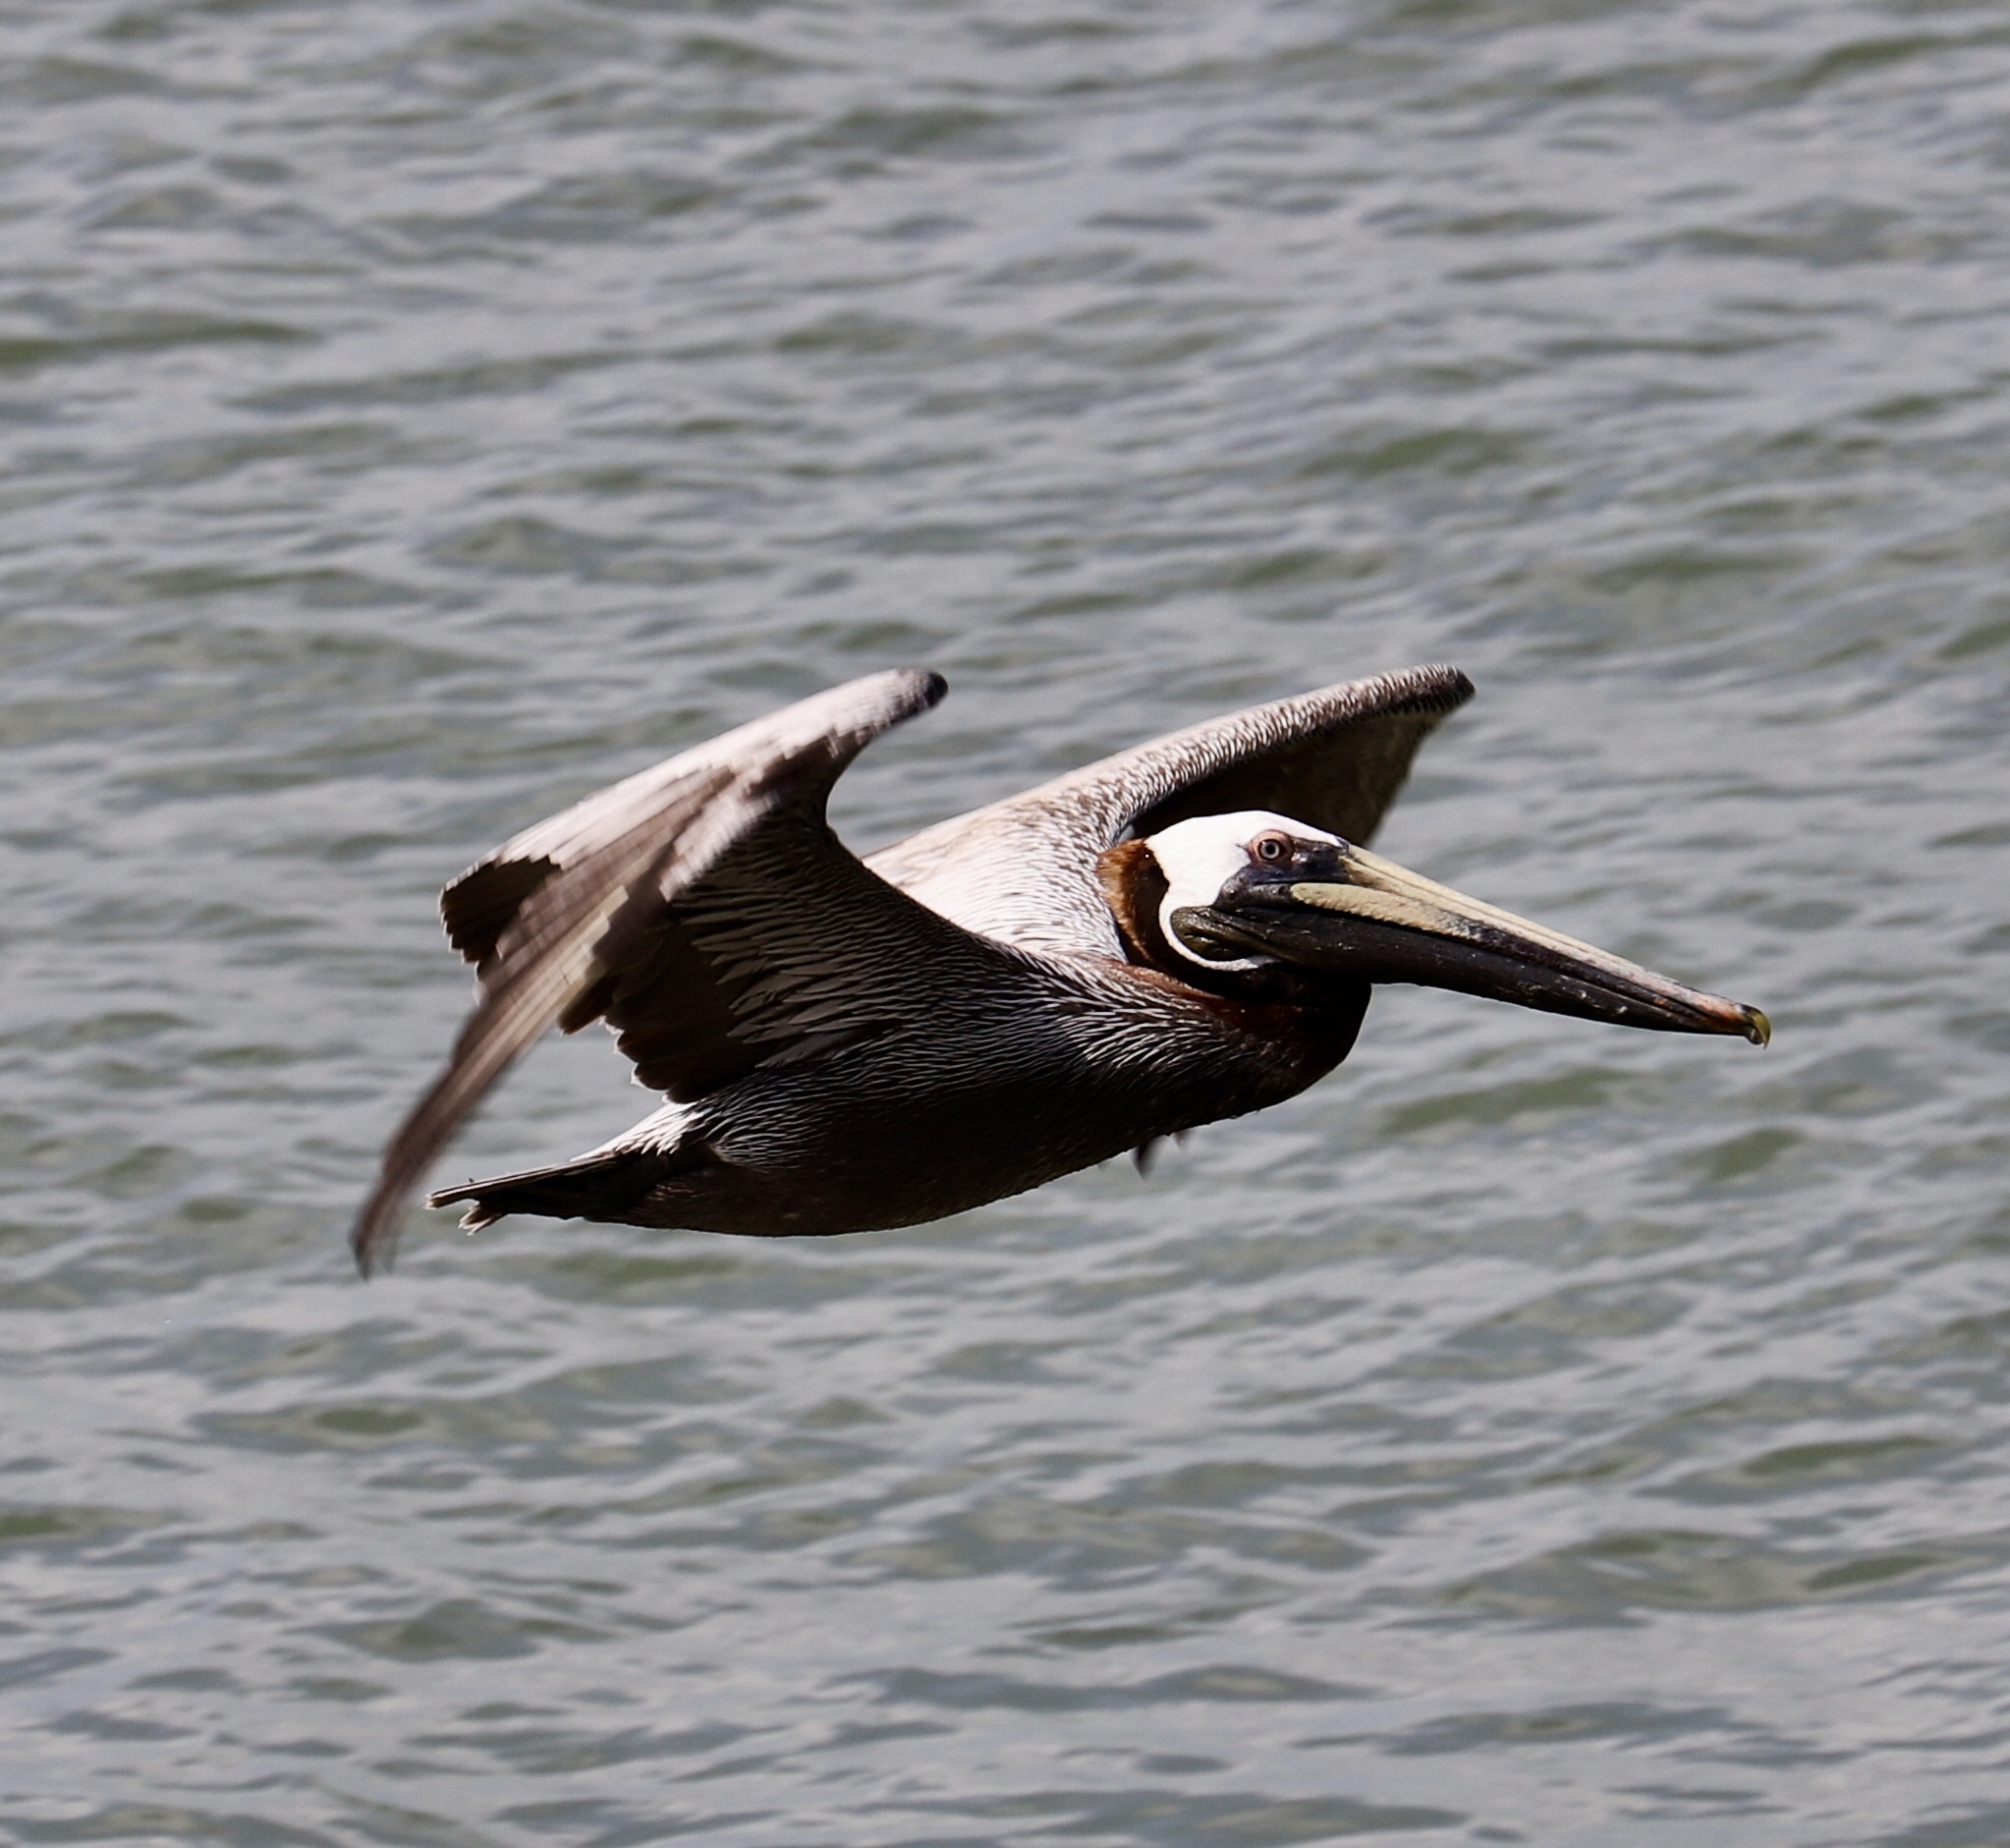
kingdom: Animalia
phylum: Chordata
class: Aves
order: Pelecaniformes
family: Pelecanidae
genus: Pelecanus
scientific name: Pelecanus occidentalis
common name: Brown pelican
